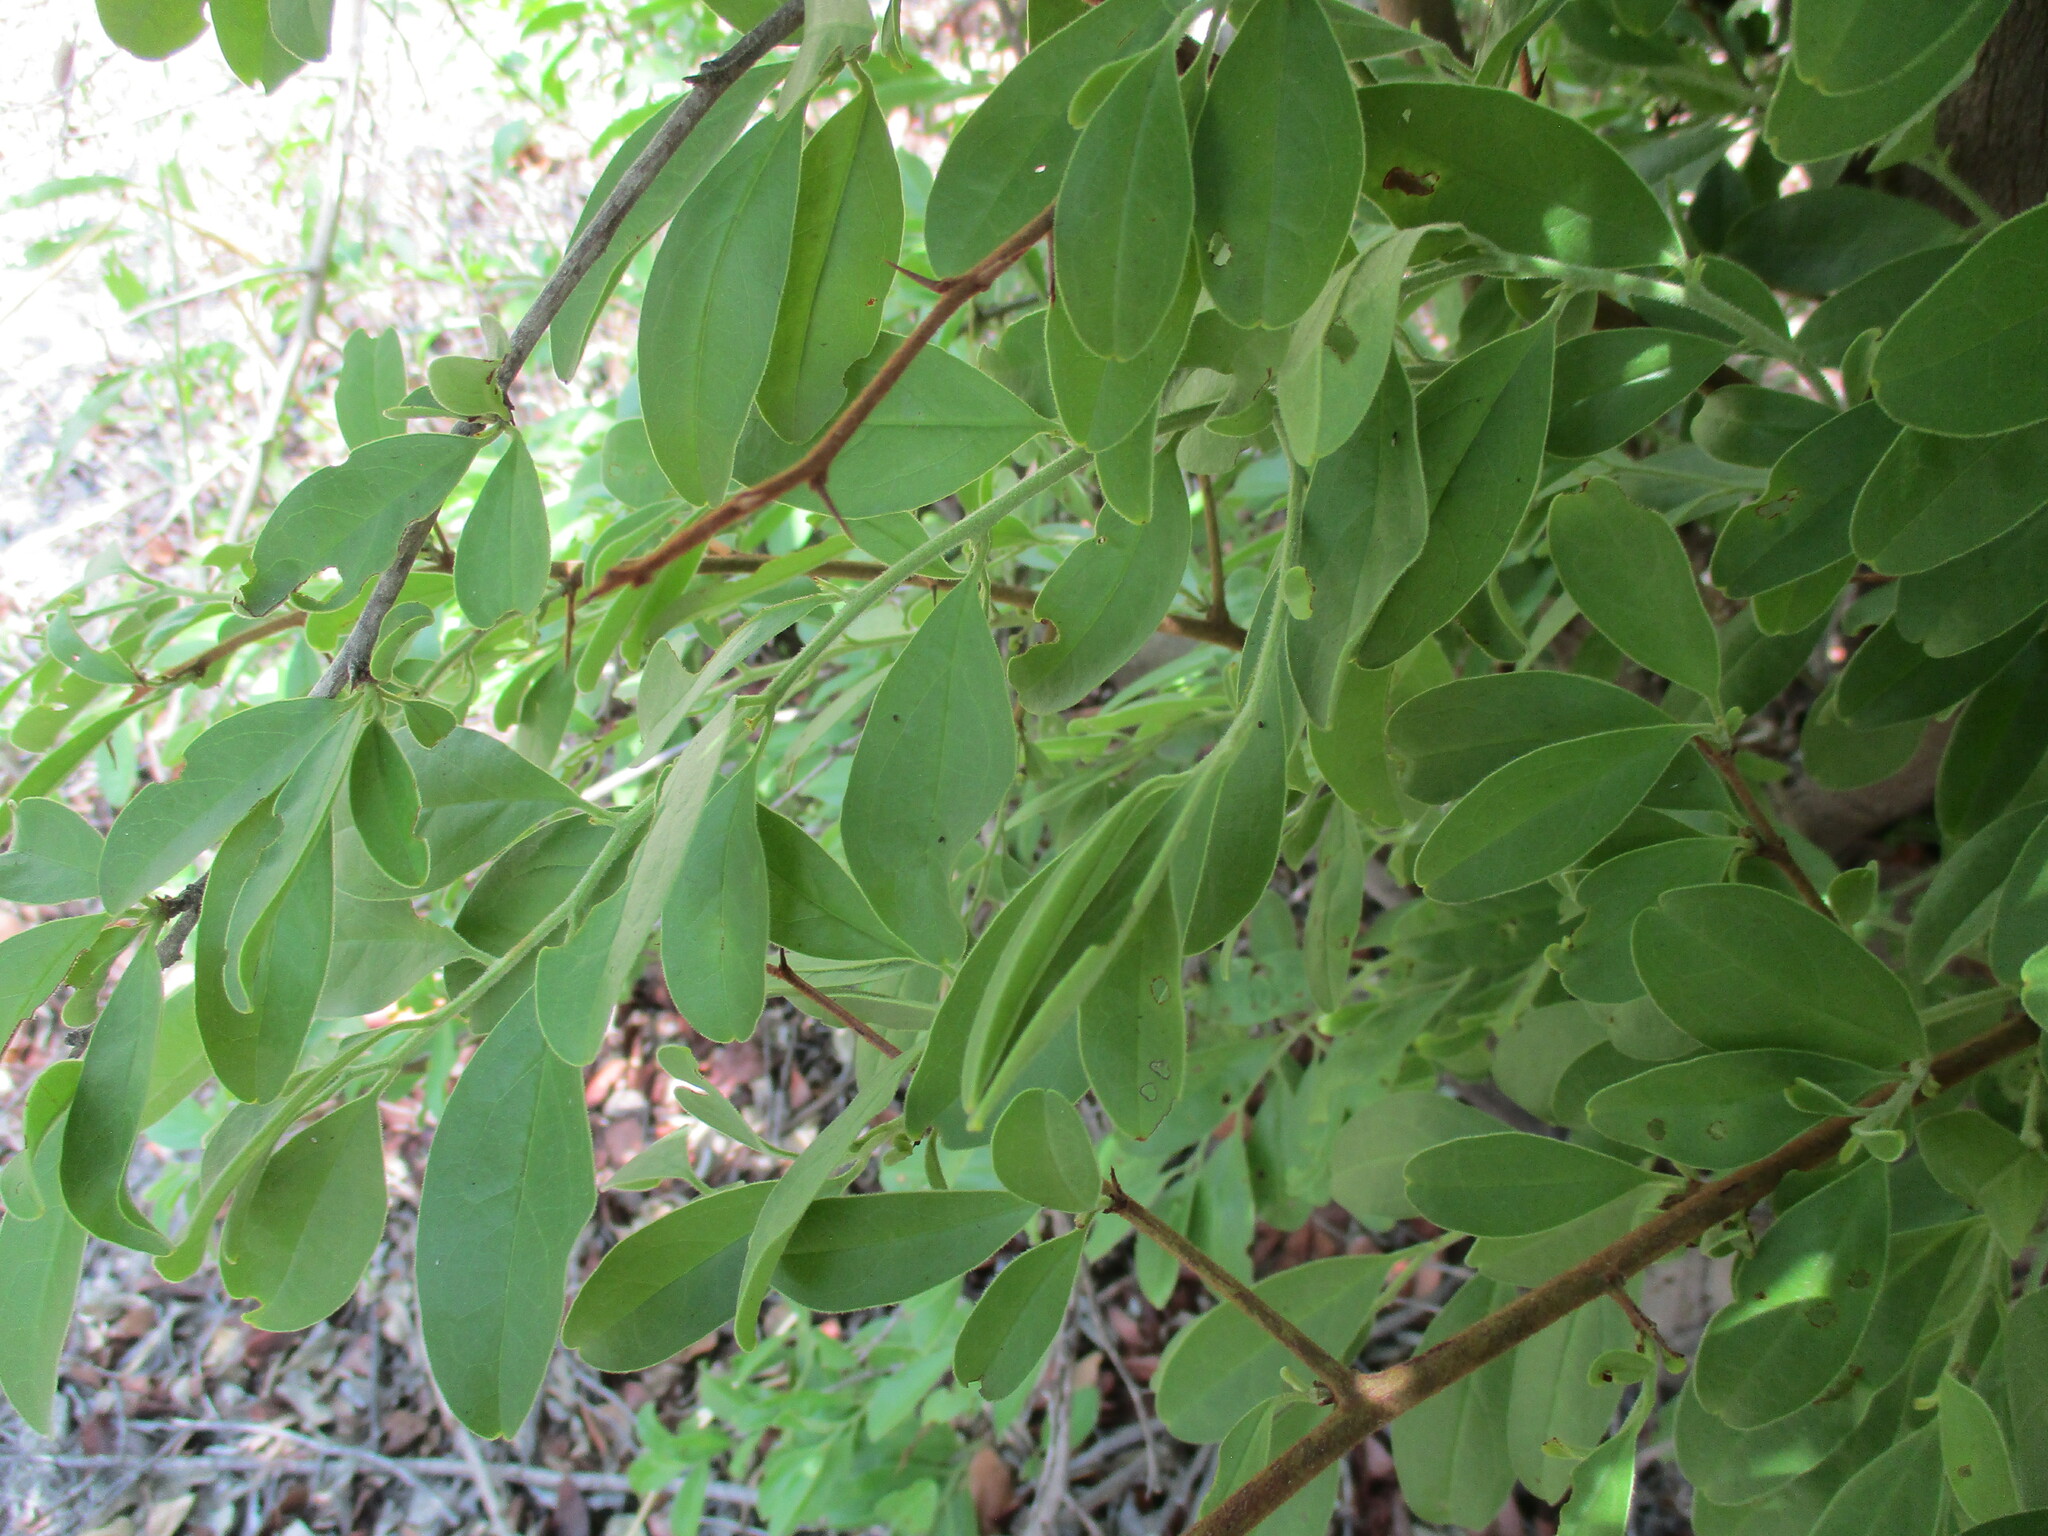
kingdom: Plantae
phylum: Tracheophyta
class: Magnoliopsida
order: Santalales
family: Ximeniaceae
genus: Ximenia
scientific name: Ximenia caffra
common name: Large sourplum
